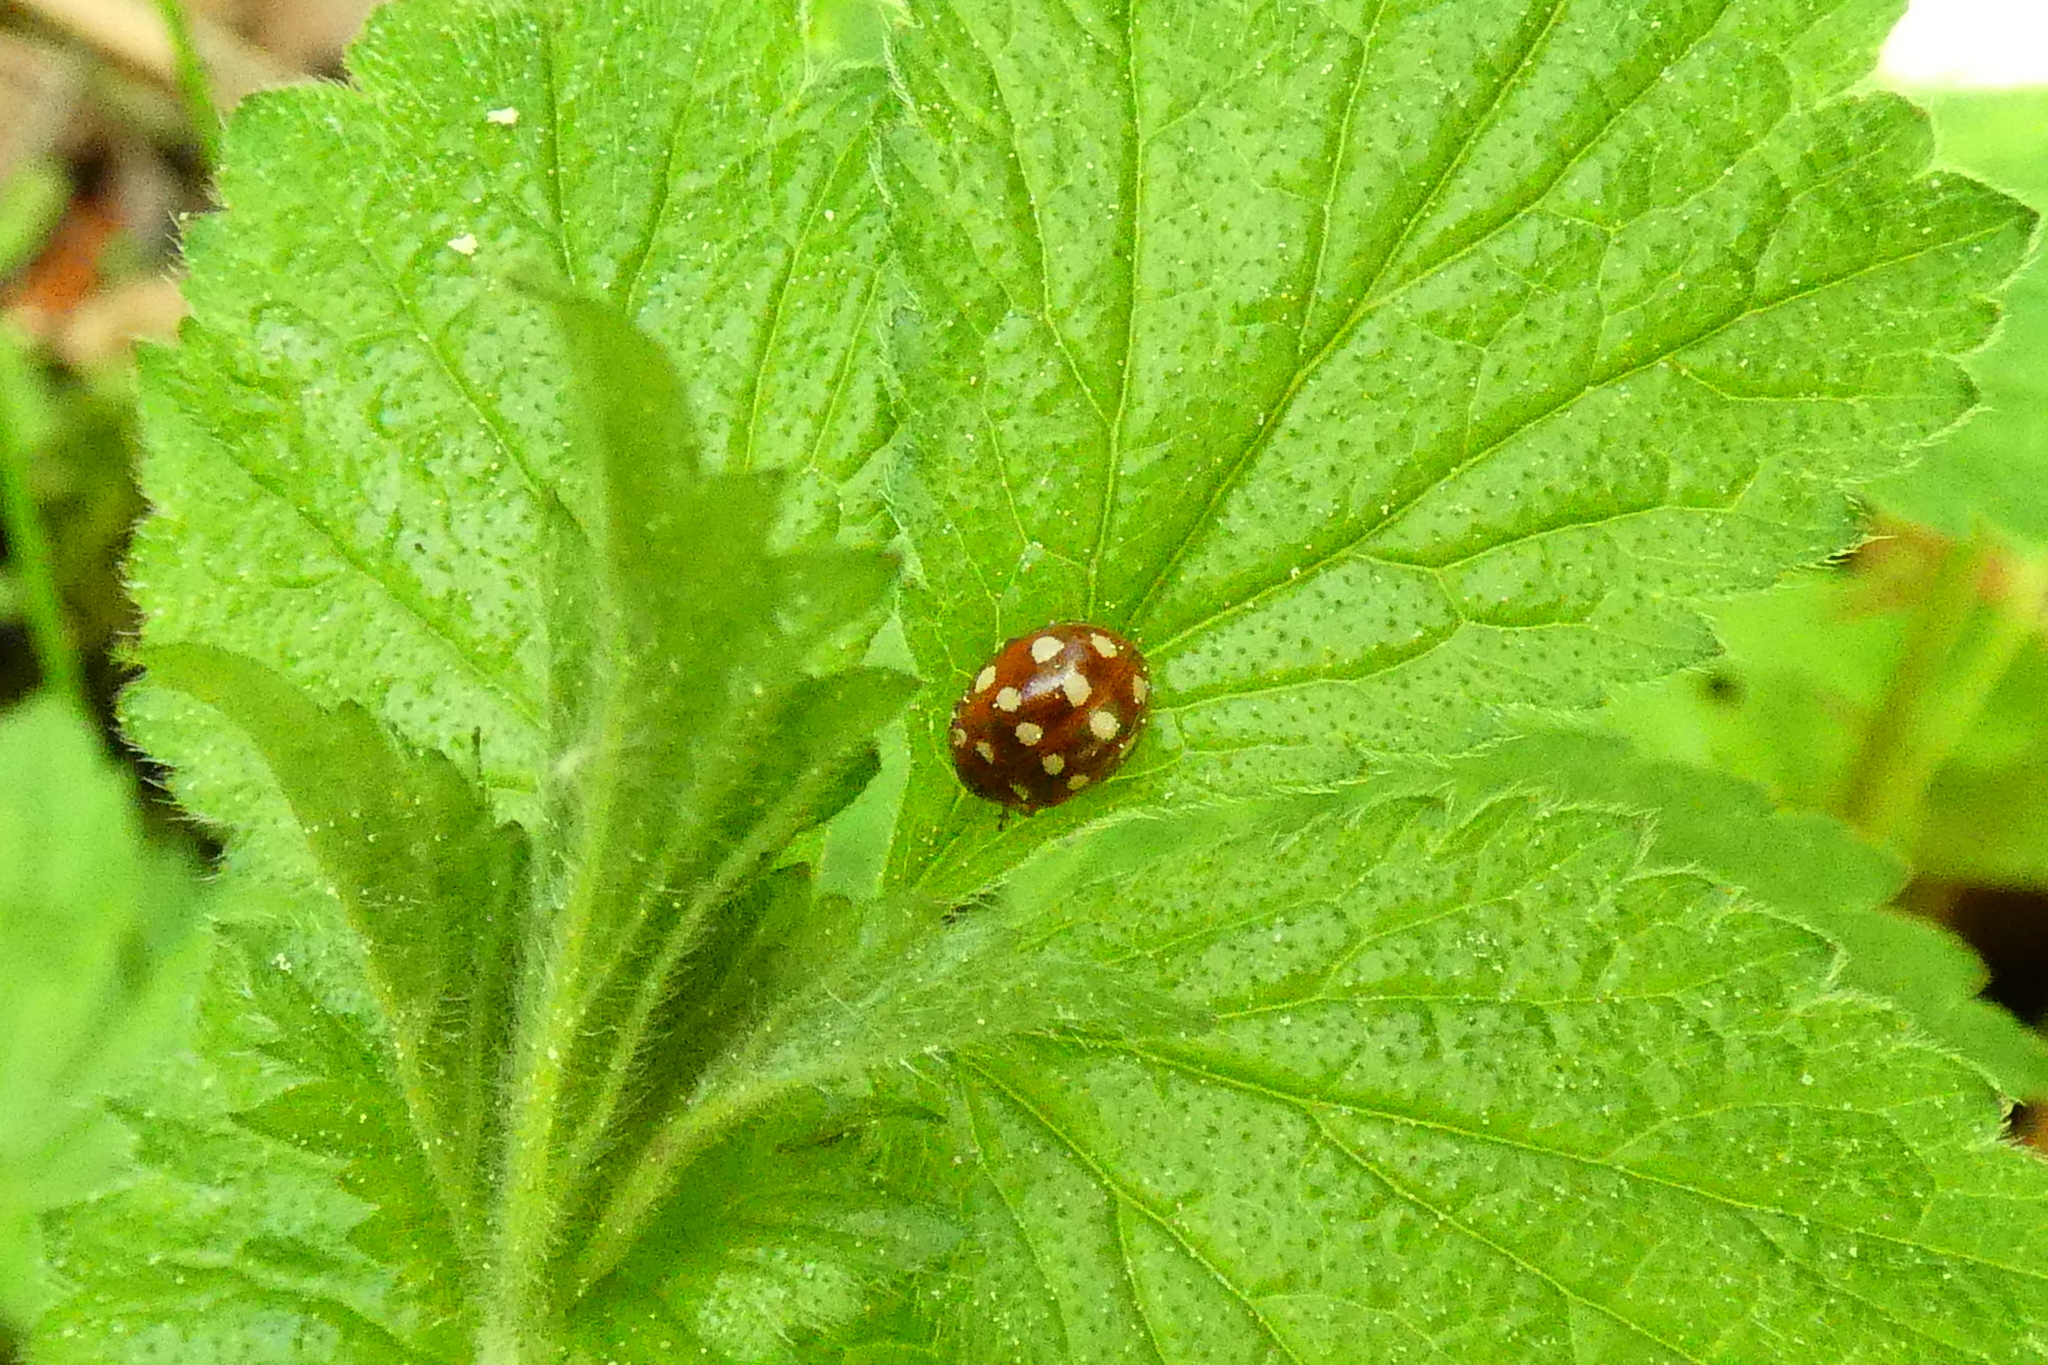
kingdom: Animalia
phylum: Arthropoda
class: Insecta
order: Coleoptera
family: Coccinellidae
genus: Calvia
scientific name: Calvia quatuordecimguttata
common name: Cream-spot ladybird
